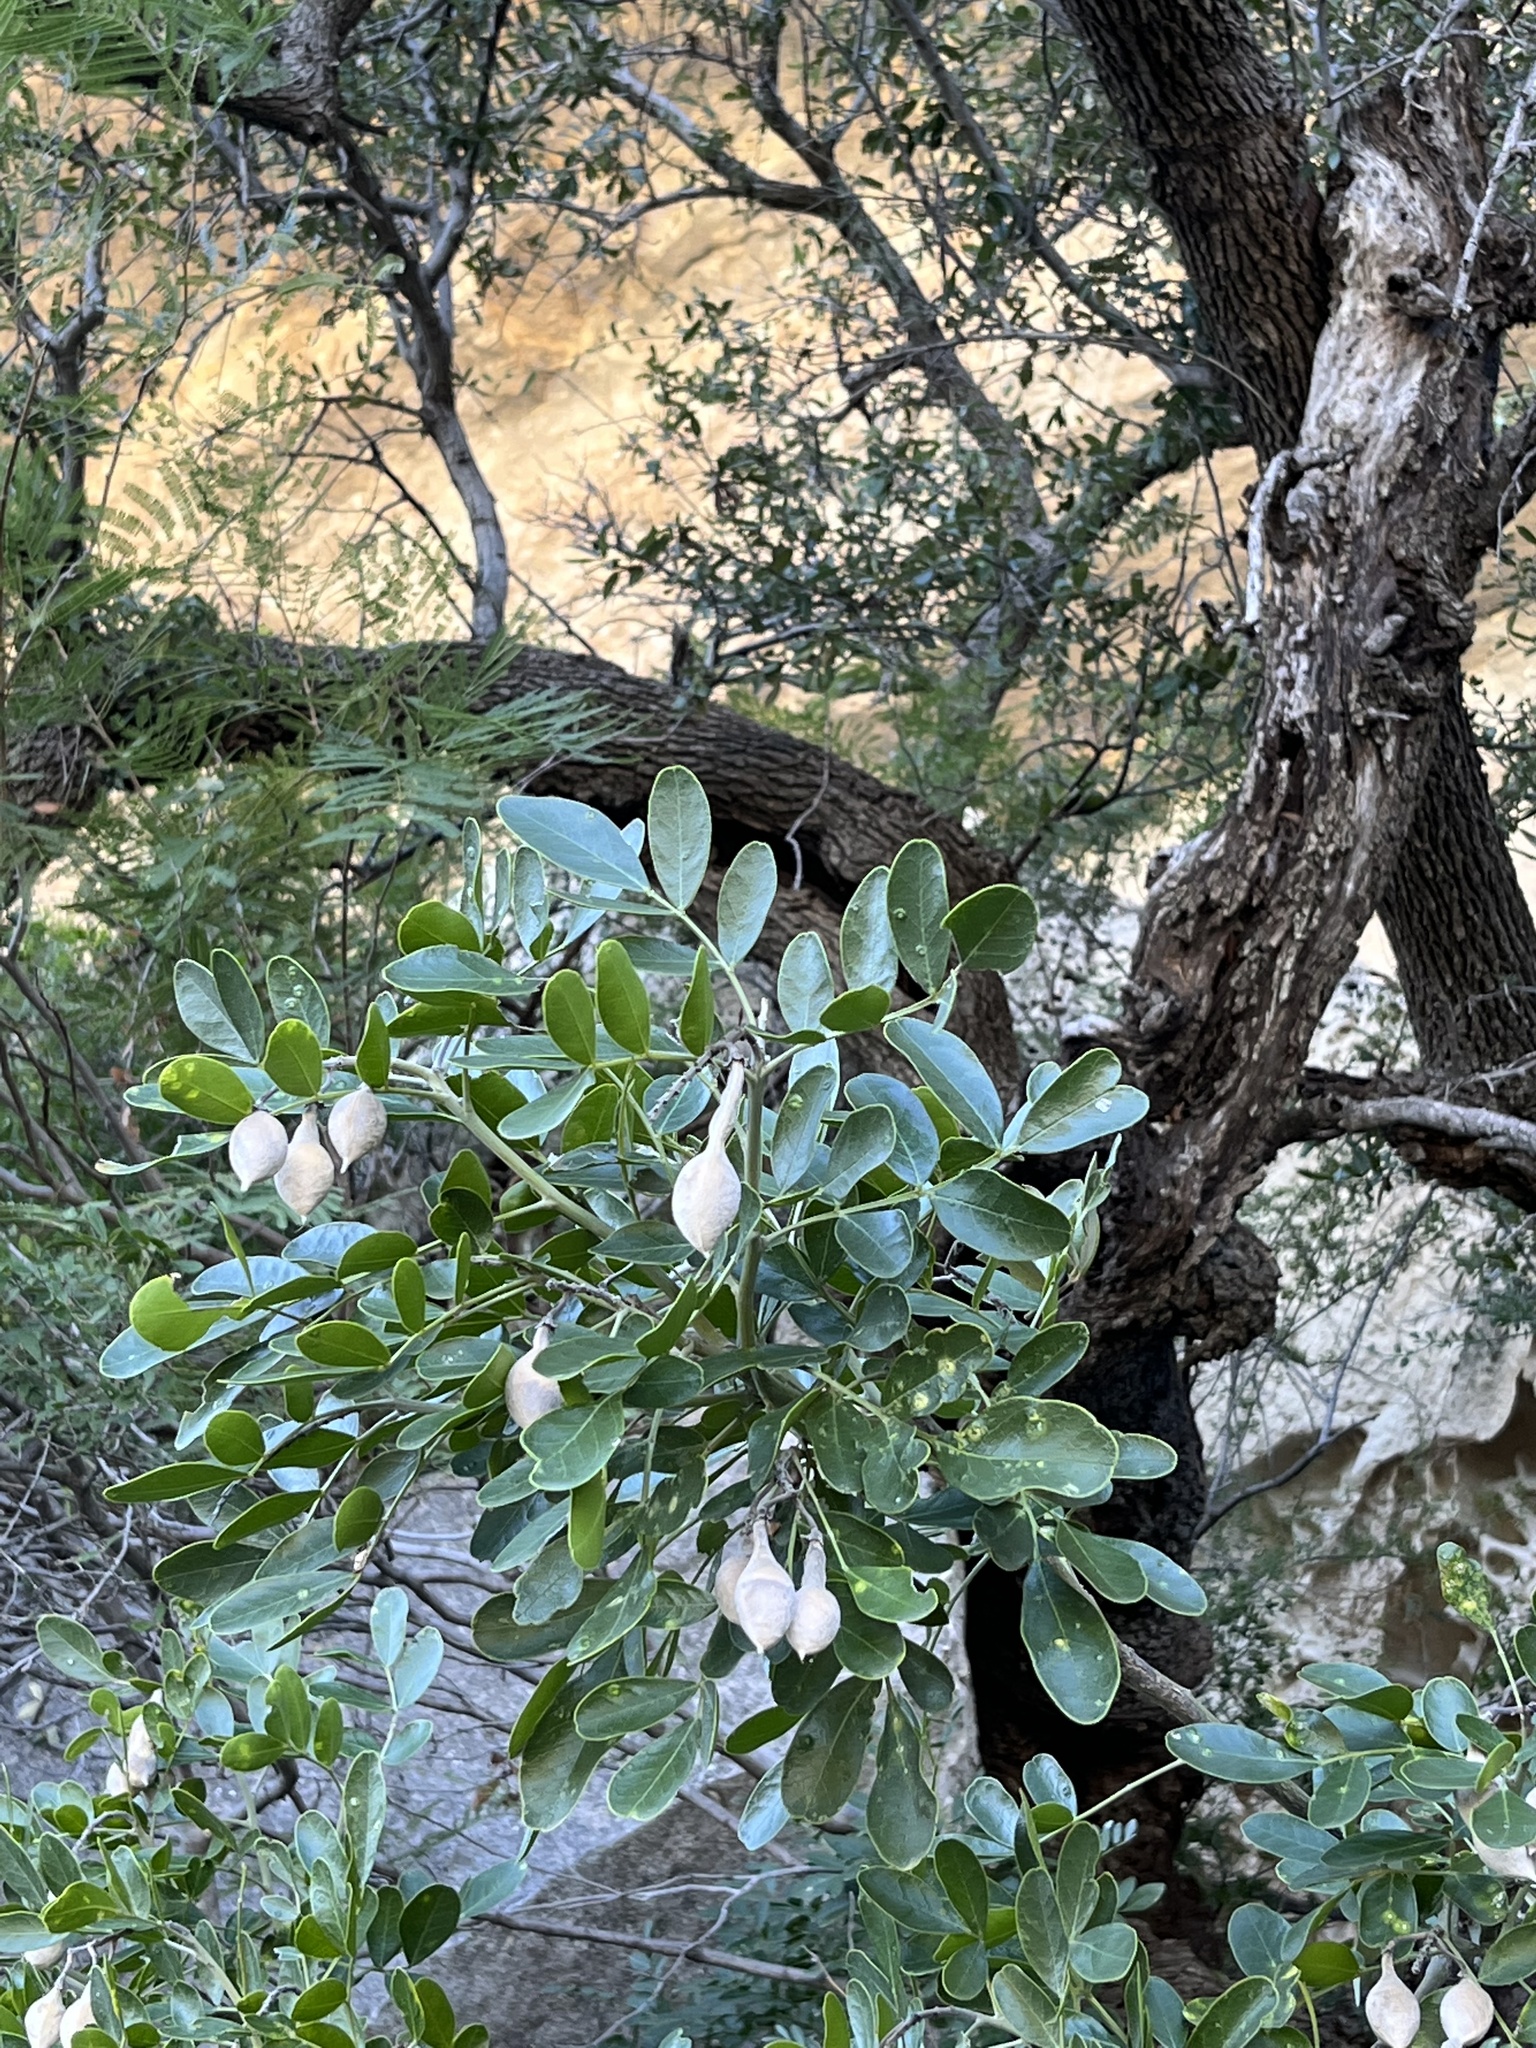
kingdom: Plantae
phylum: Tracheophyta
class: Magnoliopsida
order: Fabales
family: Fabaceae
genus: Dermatophyllum
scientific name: Dermatophyllum secundiflorum
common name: Texas-mountain-laurel
